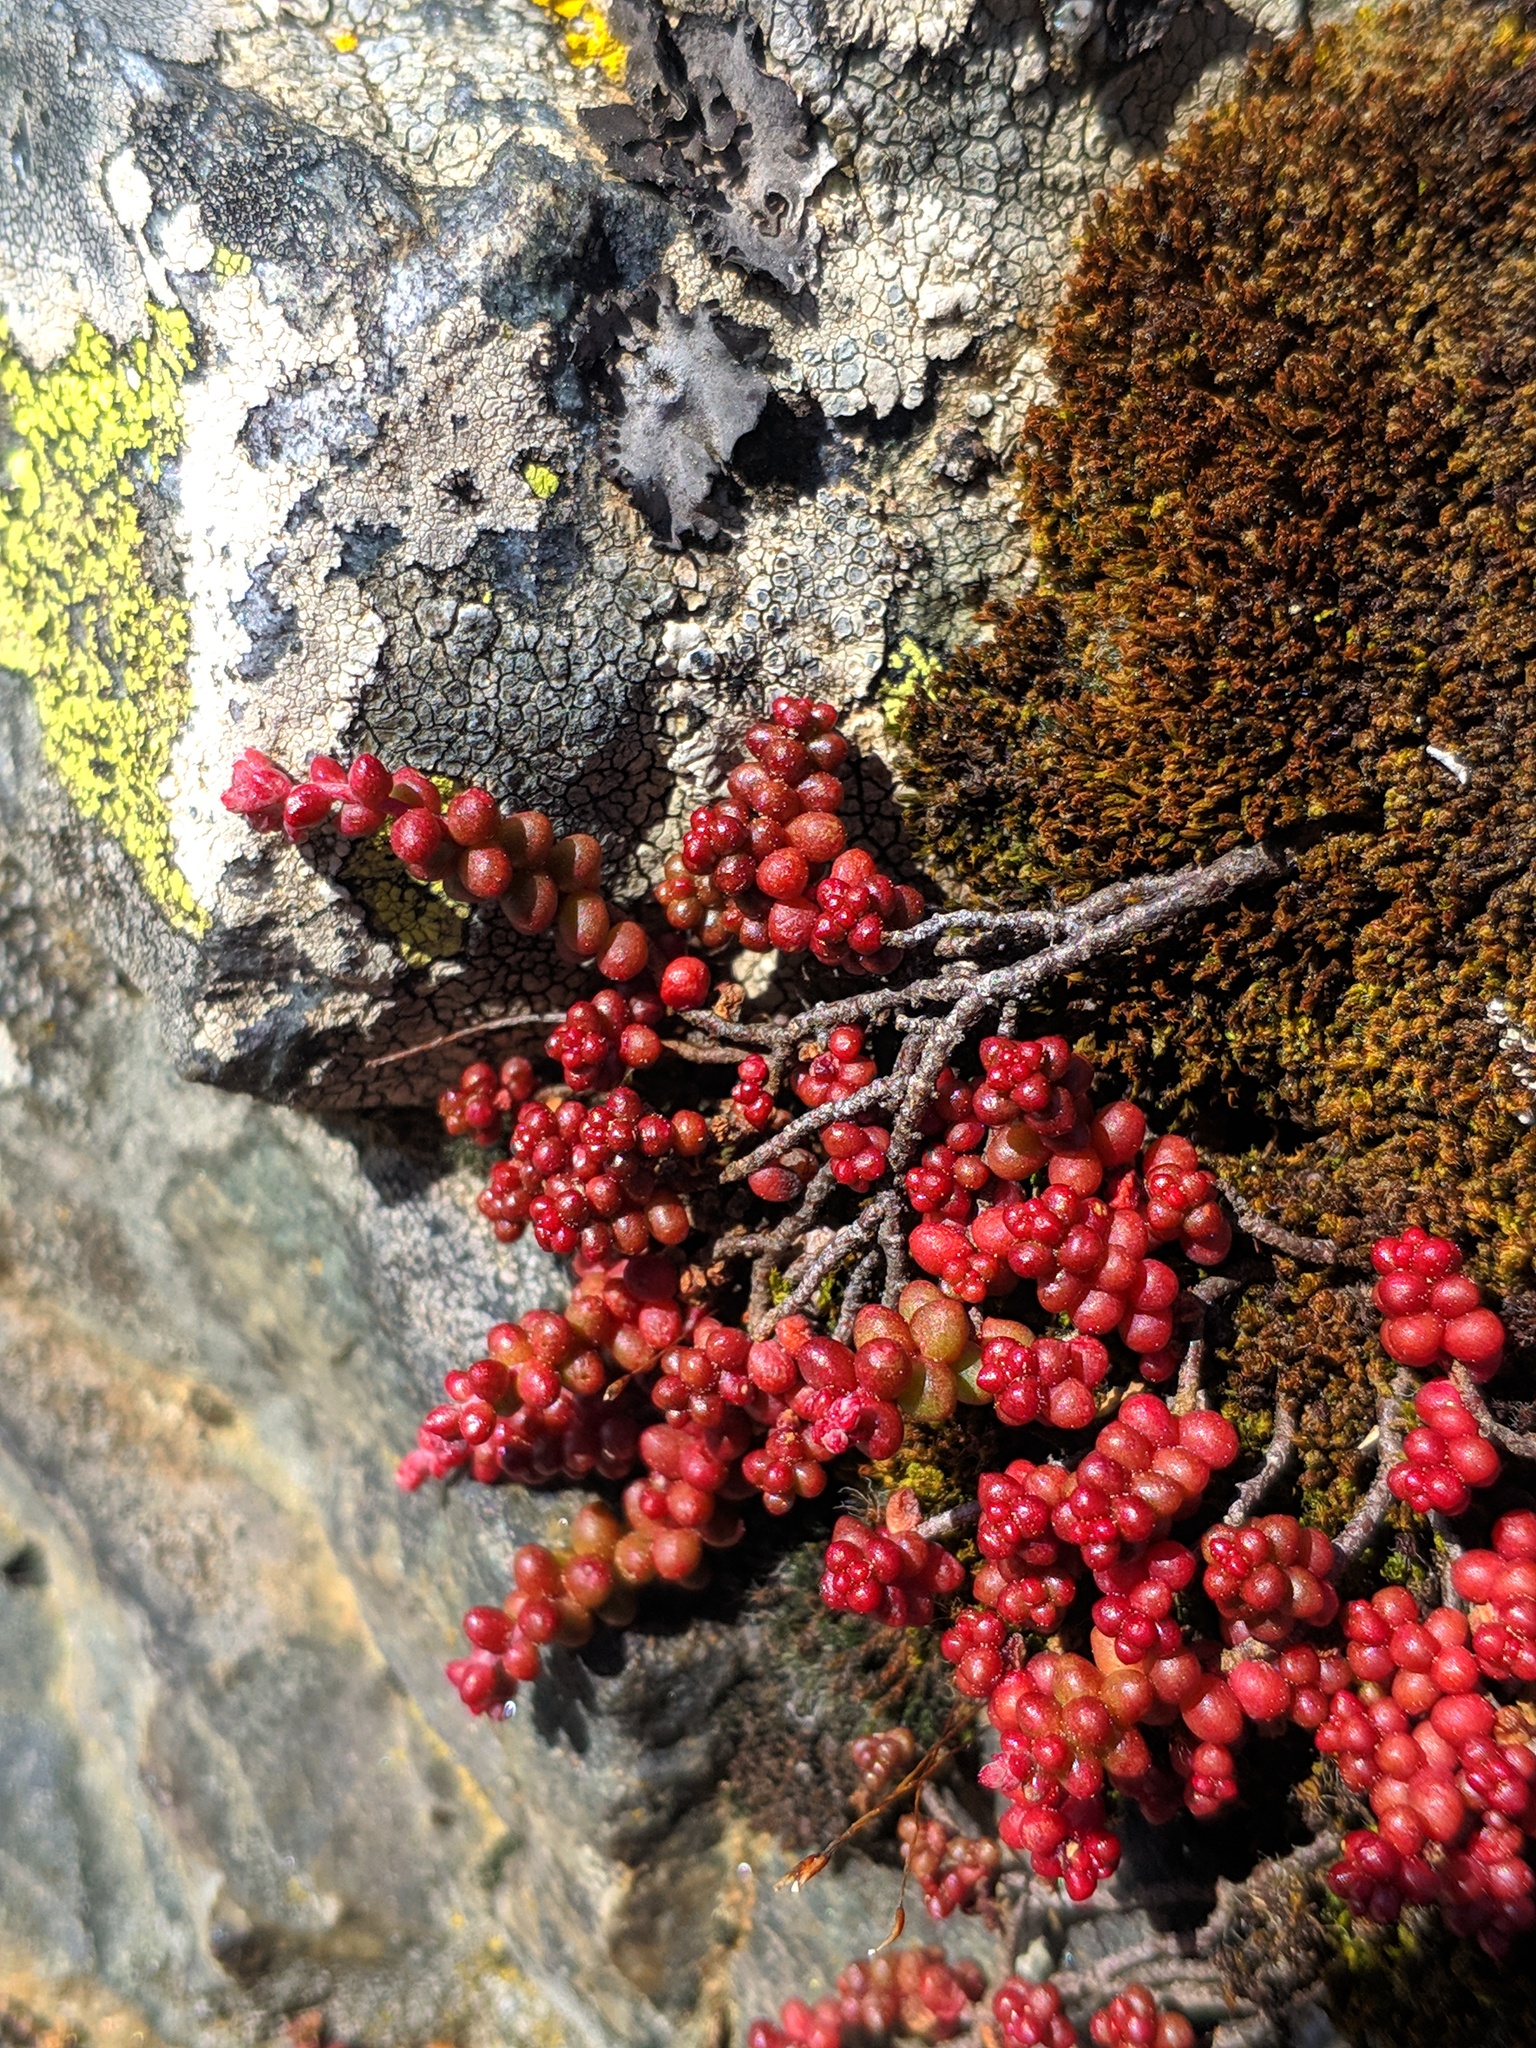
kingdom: Plantae
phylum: Tracheophyta
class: Magnoliopsida
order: Saxifragales
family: Crassulaceae
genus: Sedum
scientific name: Sedum brevifolium
